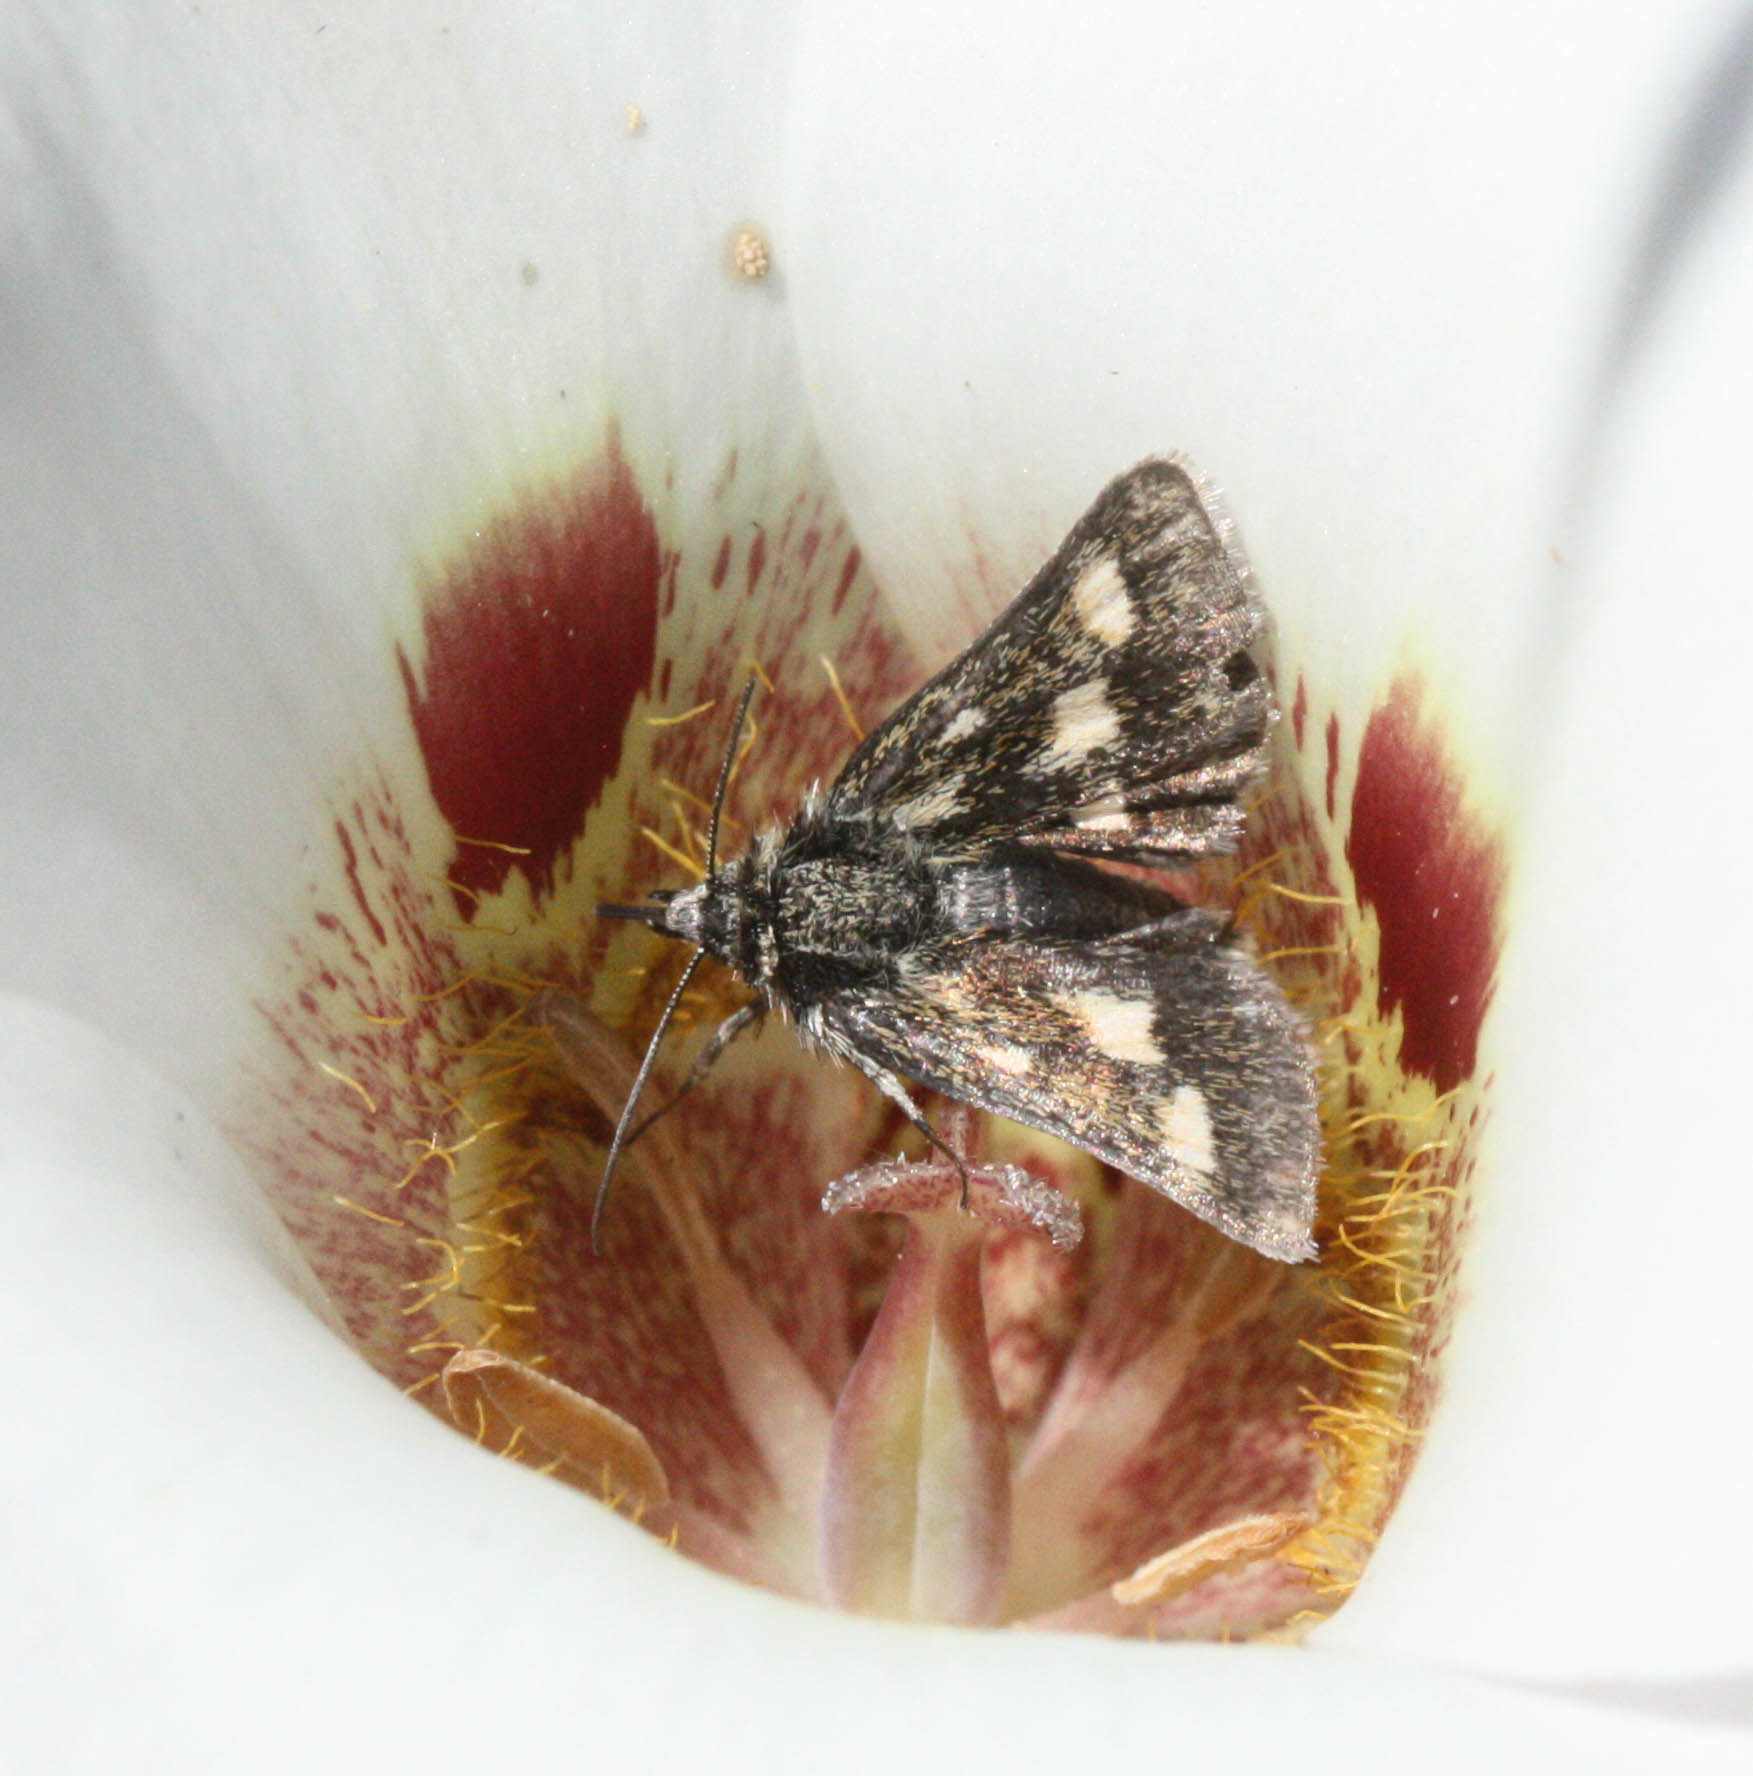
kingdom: Animalia
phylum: Arthropoda
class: Insecta
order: Lepidoptera
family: Noctuidae
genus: Heliothodes
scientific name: Heliothodes diminutiva
